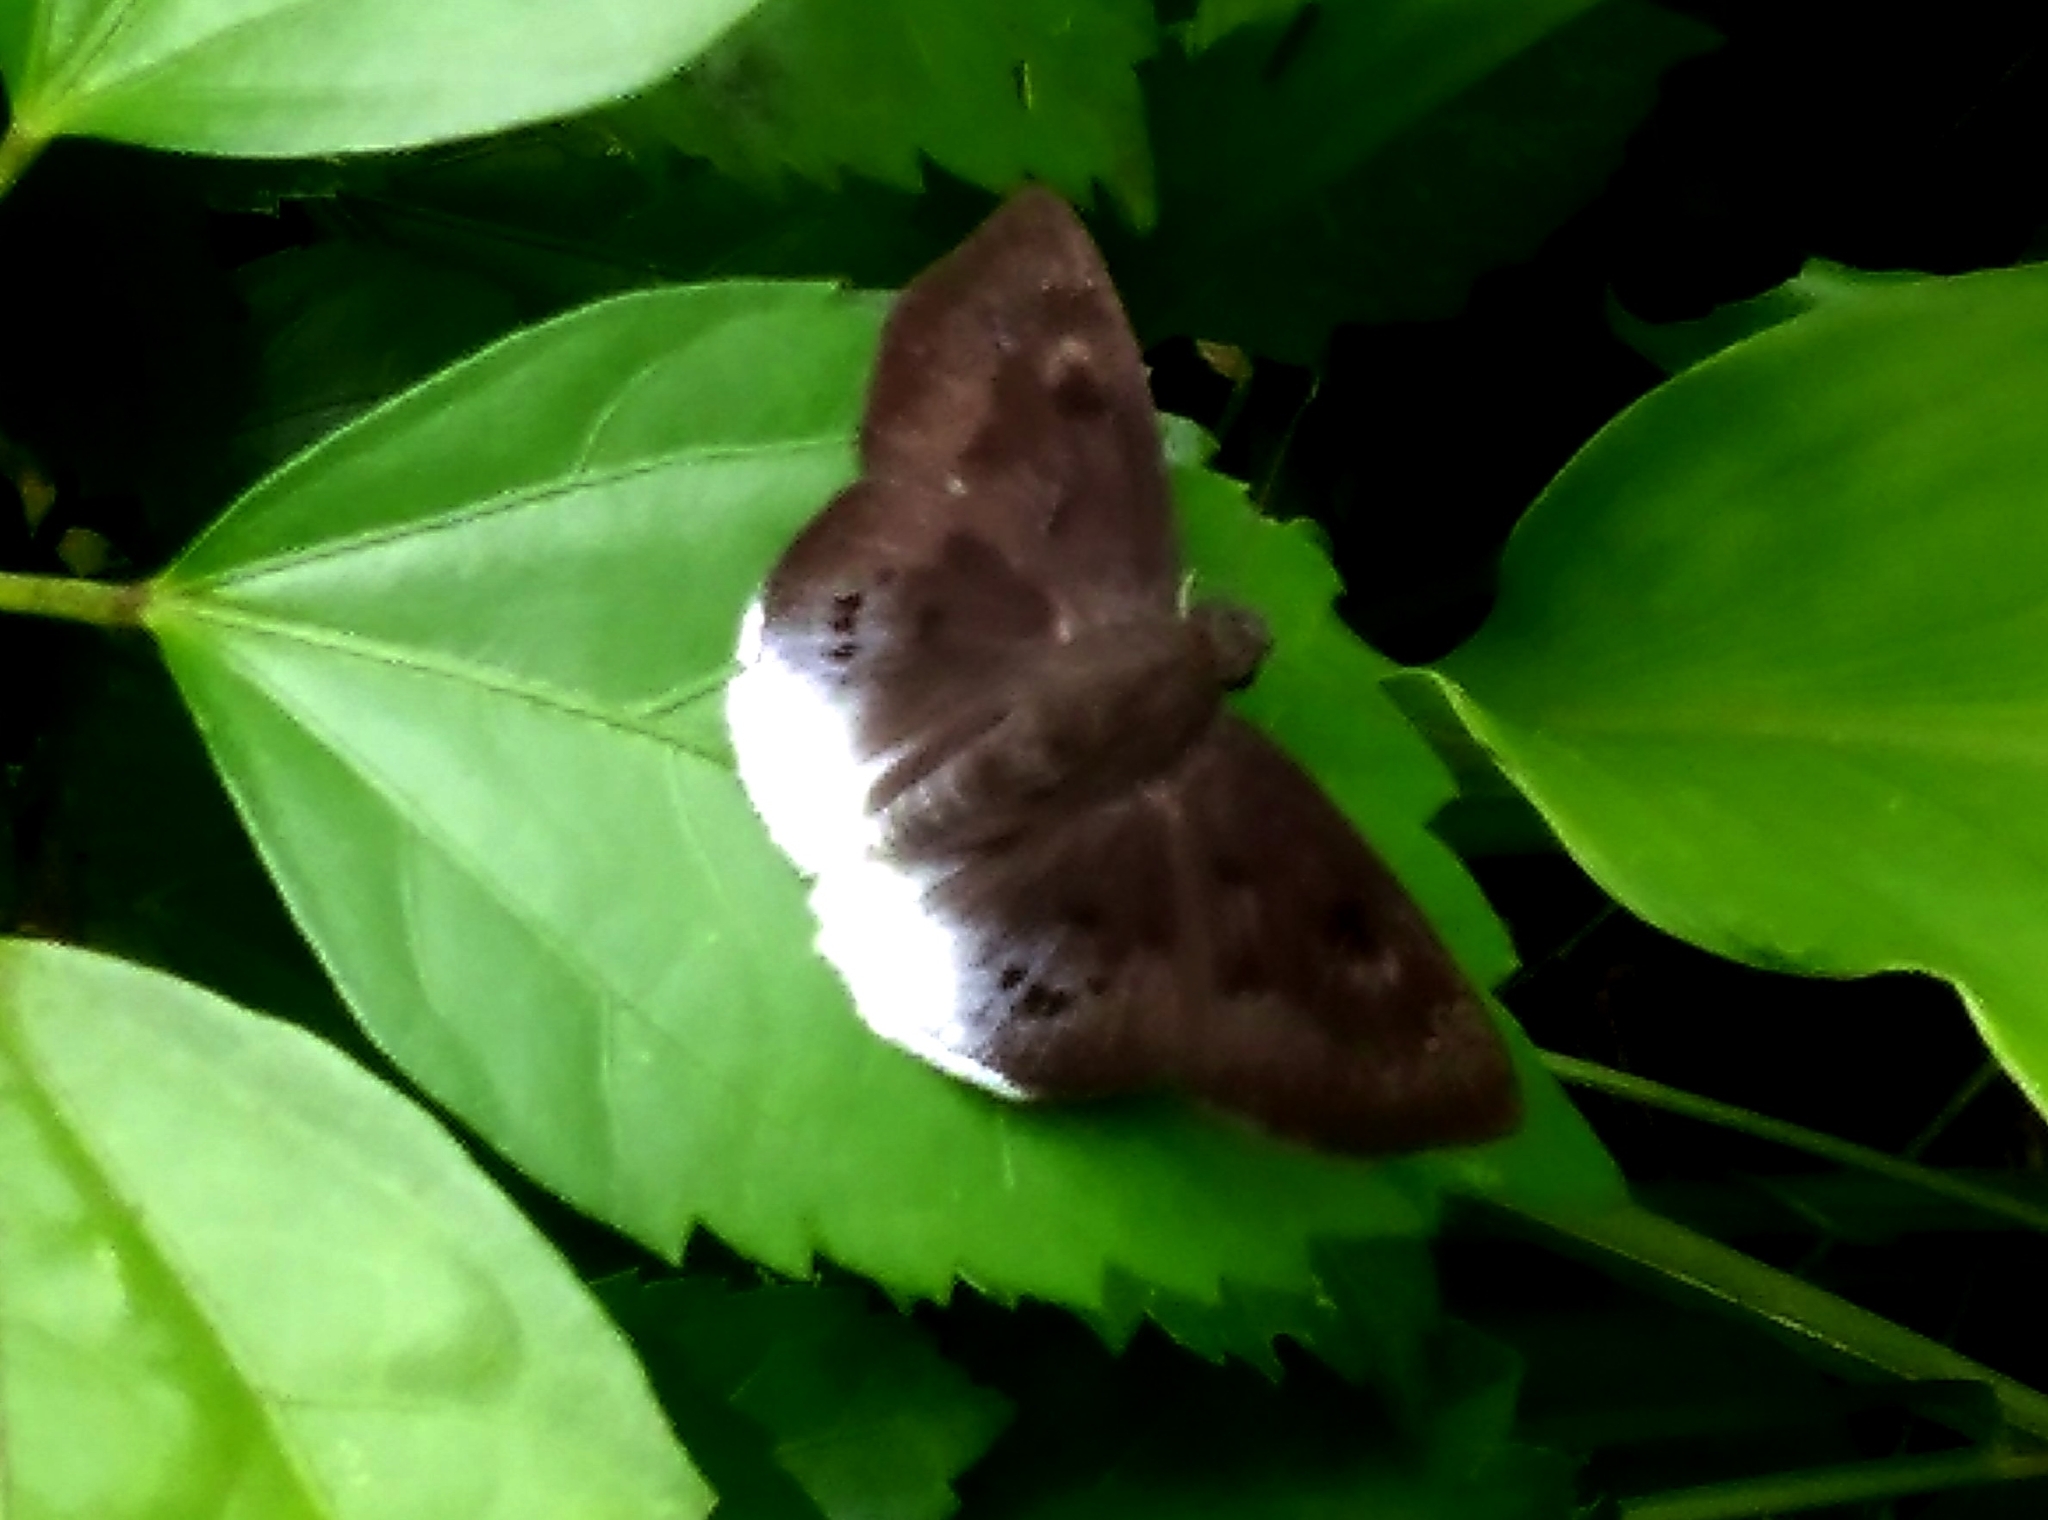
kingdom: Animalia
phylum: Arthropoda
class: Insecta
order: Lepidoptera
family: Hesperiidae
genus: Tagiades
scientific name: Tagiades gana
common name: Suffused snow flat
